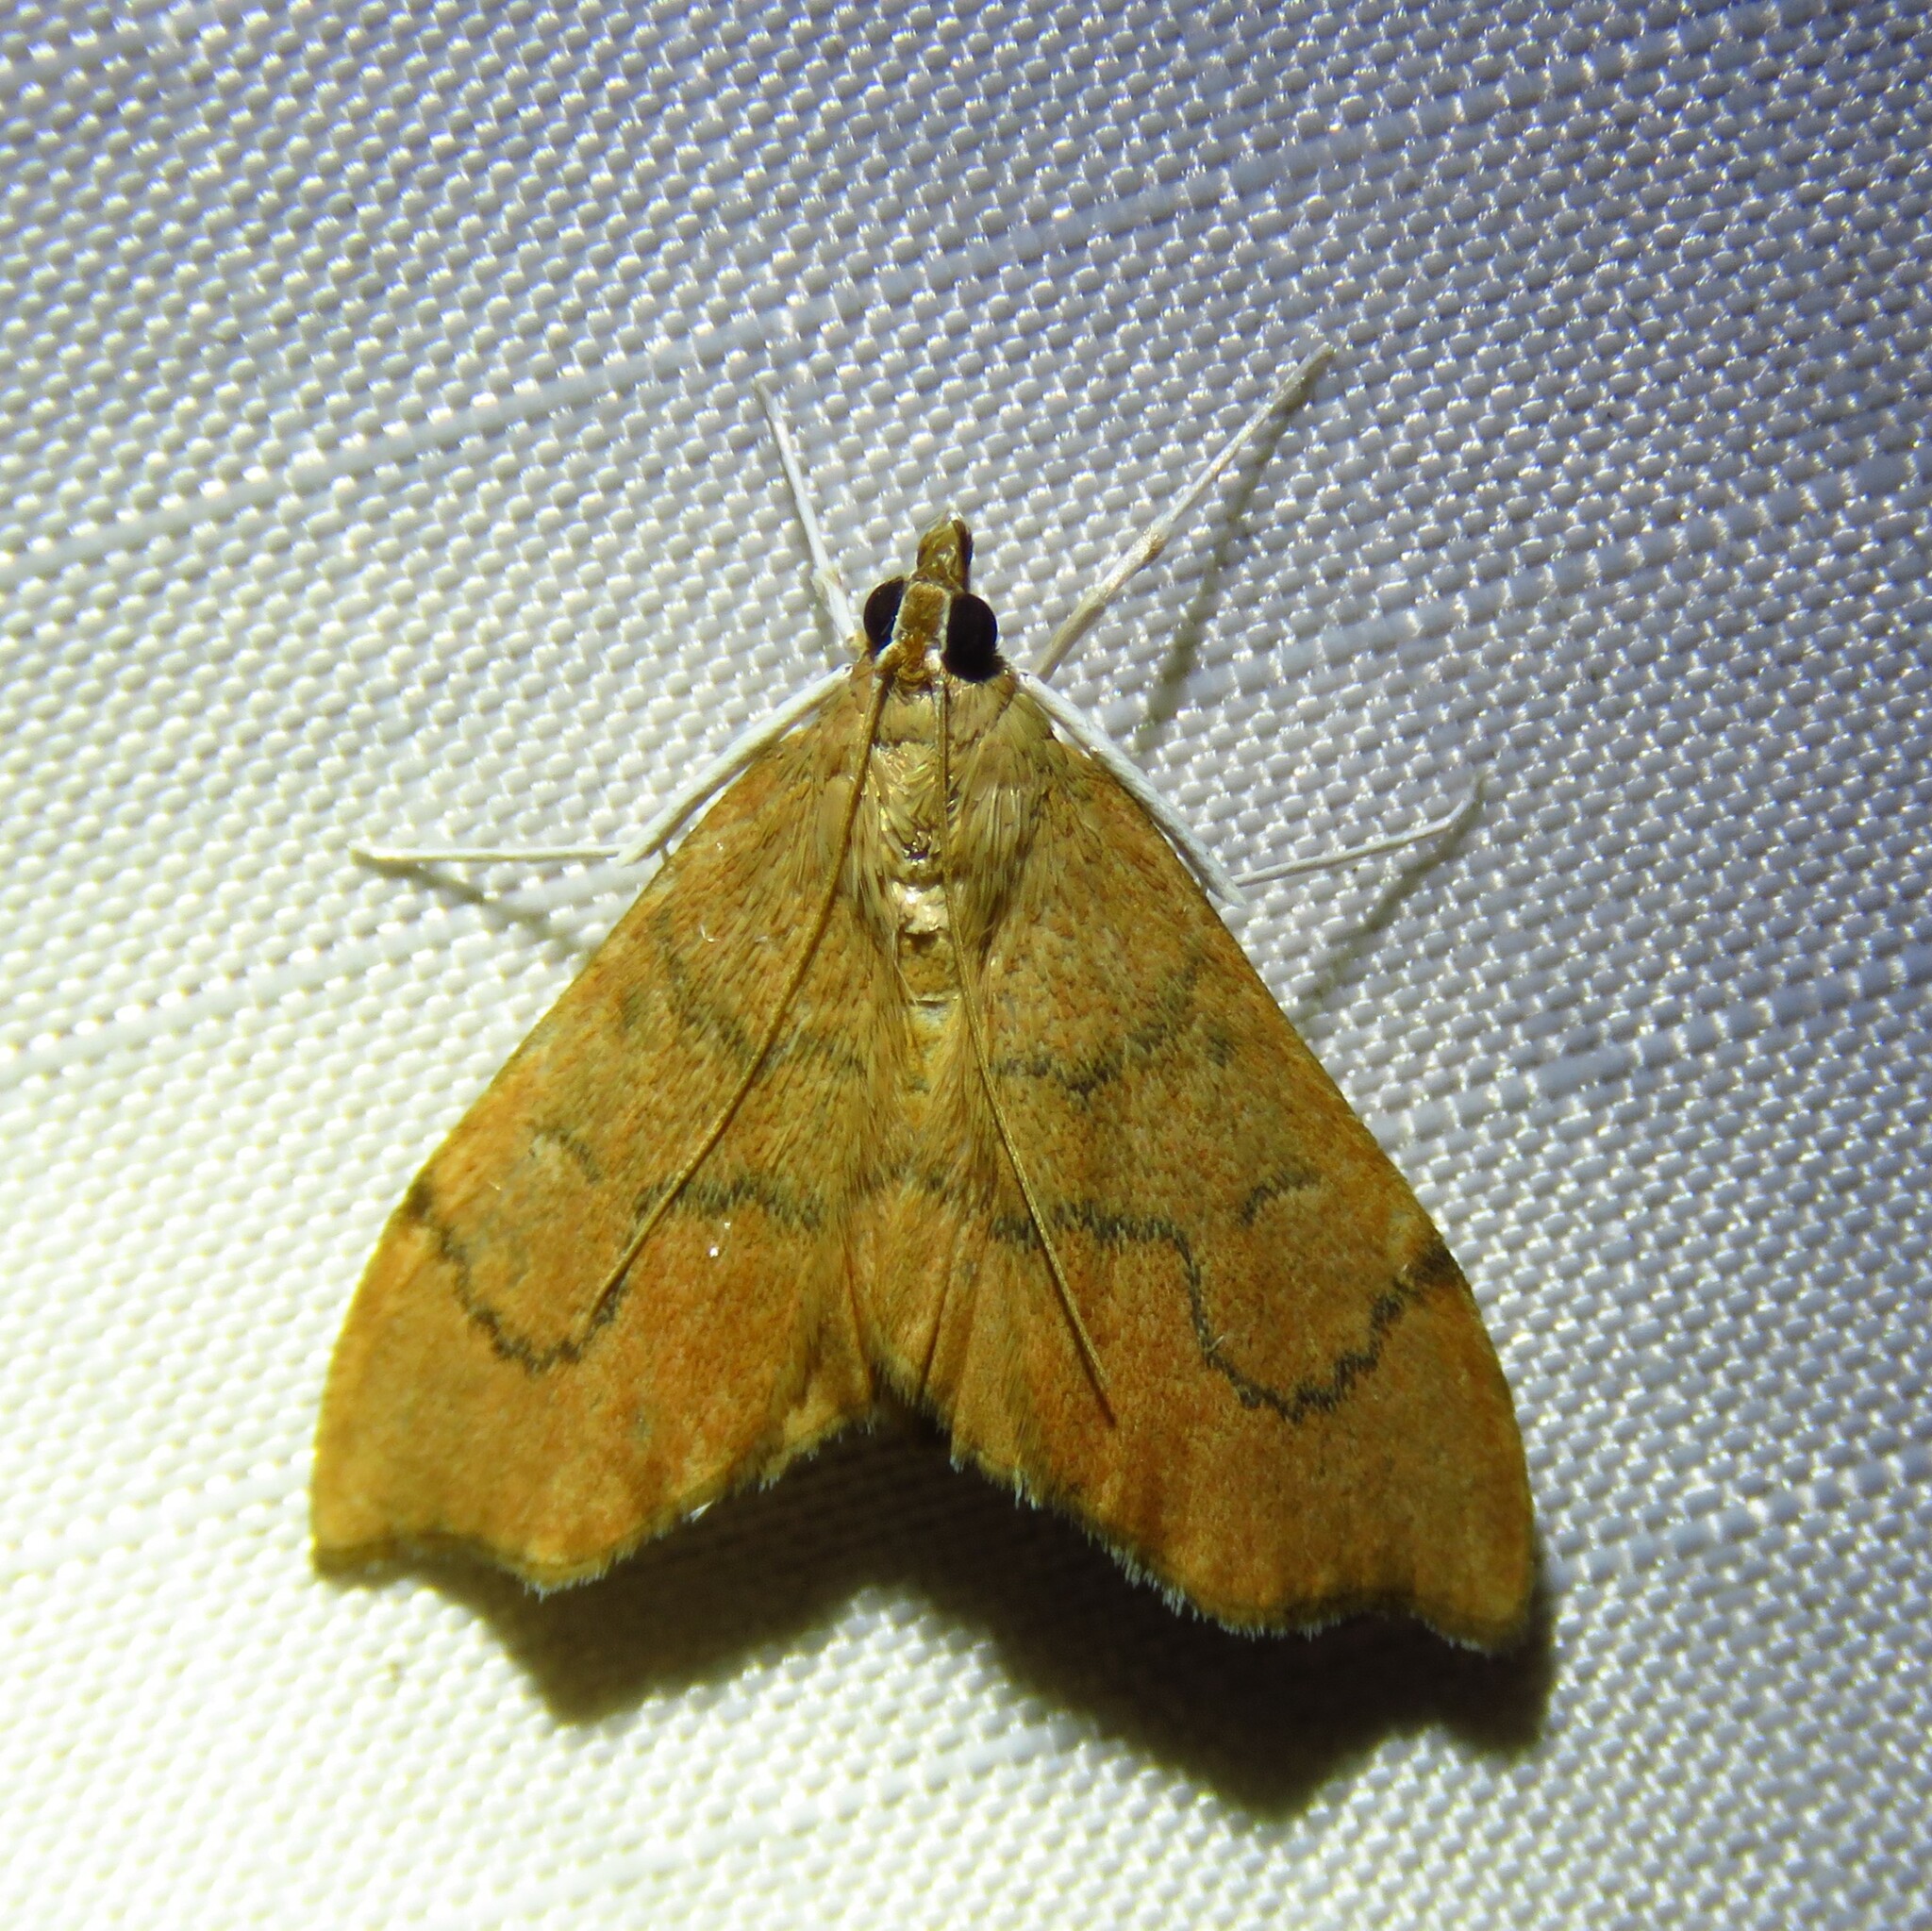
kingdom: Animalia
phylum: Arthropoda
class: Insecta
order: Lepidoptera
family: Crambidae
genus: Sericoplaga
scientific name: Sericoplaga externalis
